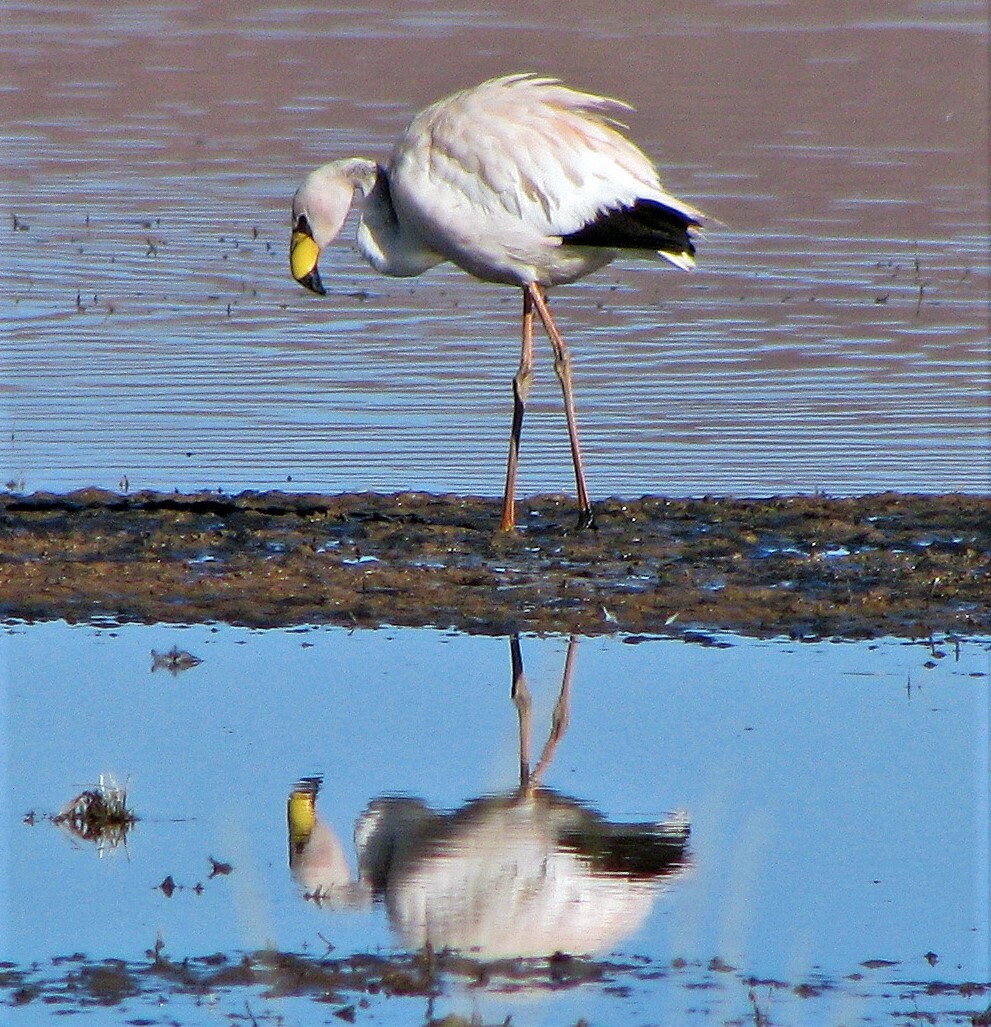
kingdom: Animalia
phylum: Chordata
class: Aves
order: Phoenicopteriformes
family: Phoenicopteridae
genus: Phoenicoparrus
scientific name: Phoenicoparrus jamesi
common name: James's flamingo
